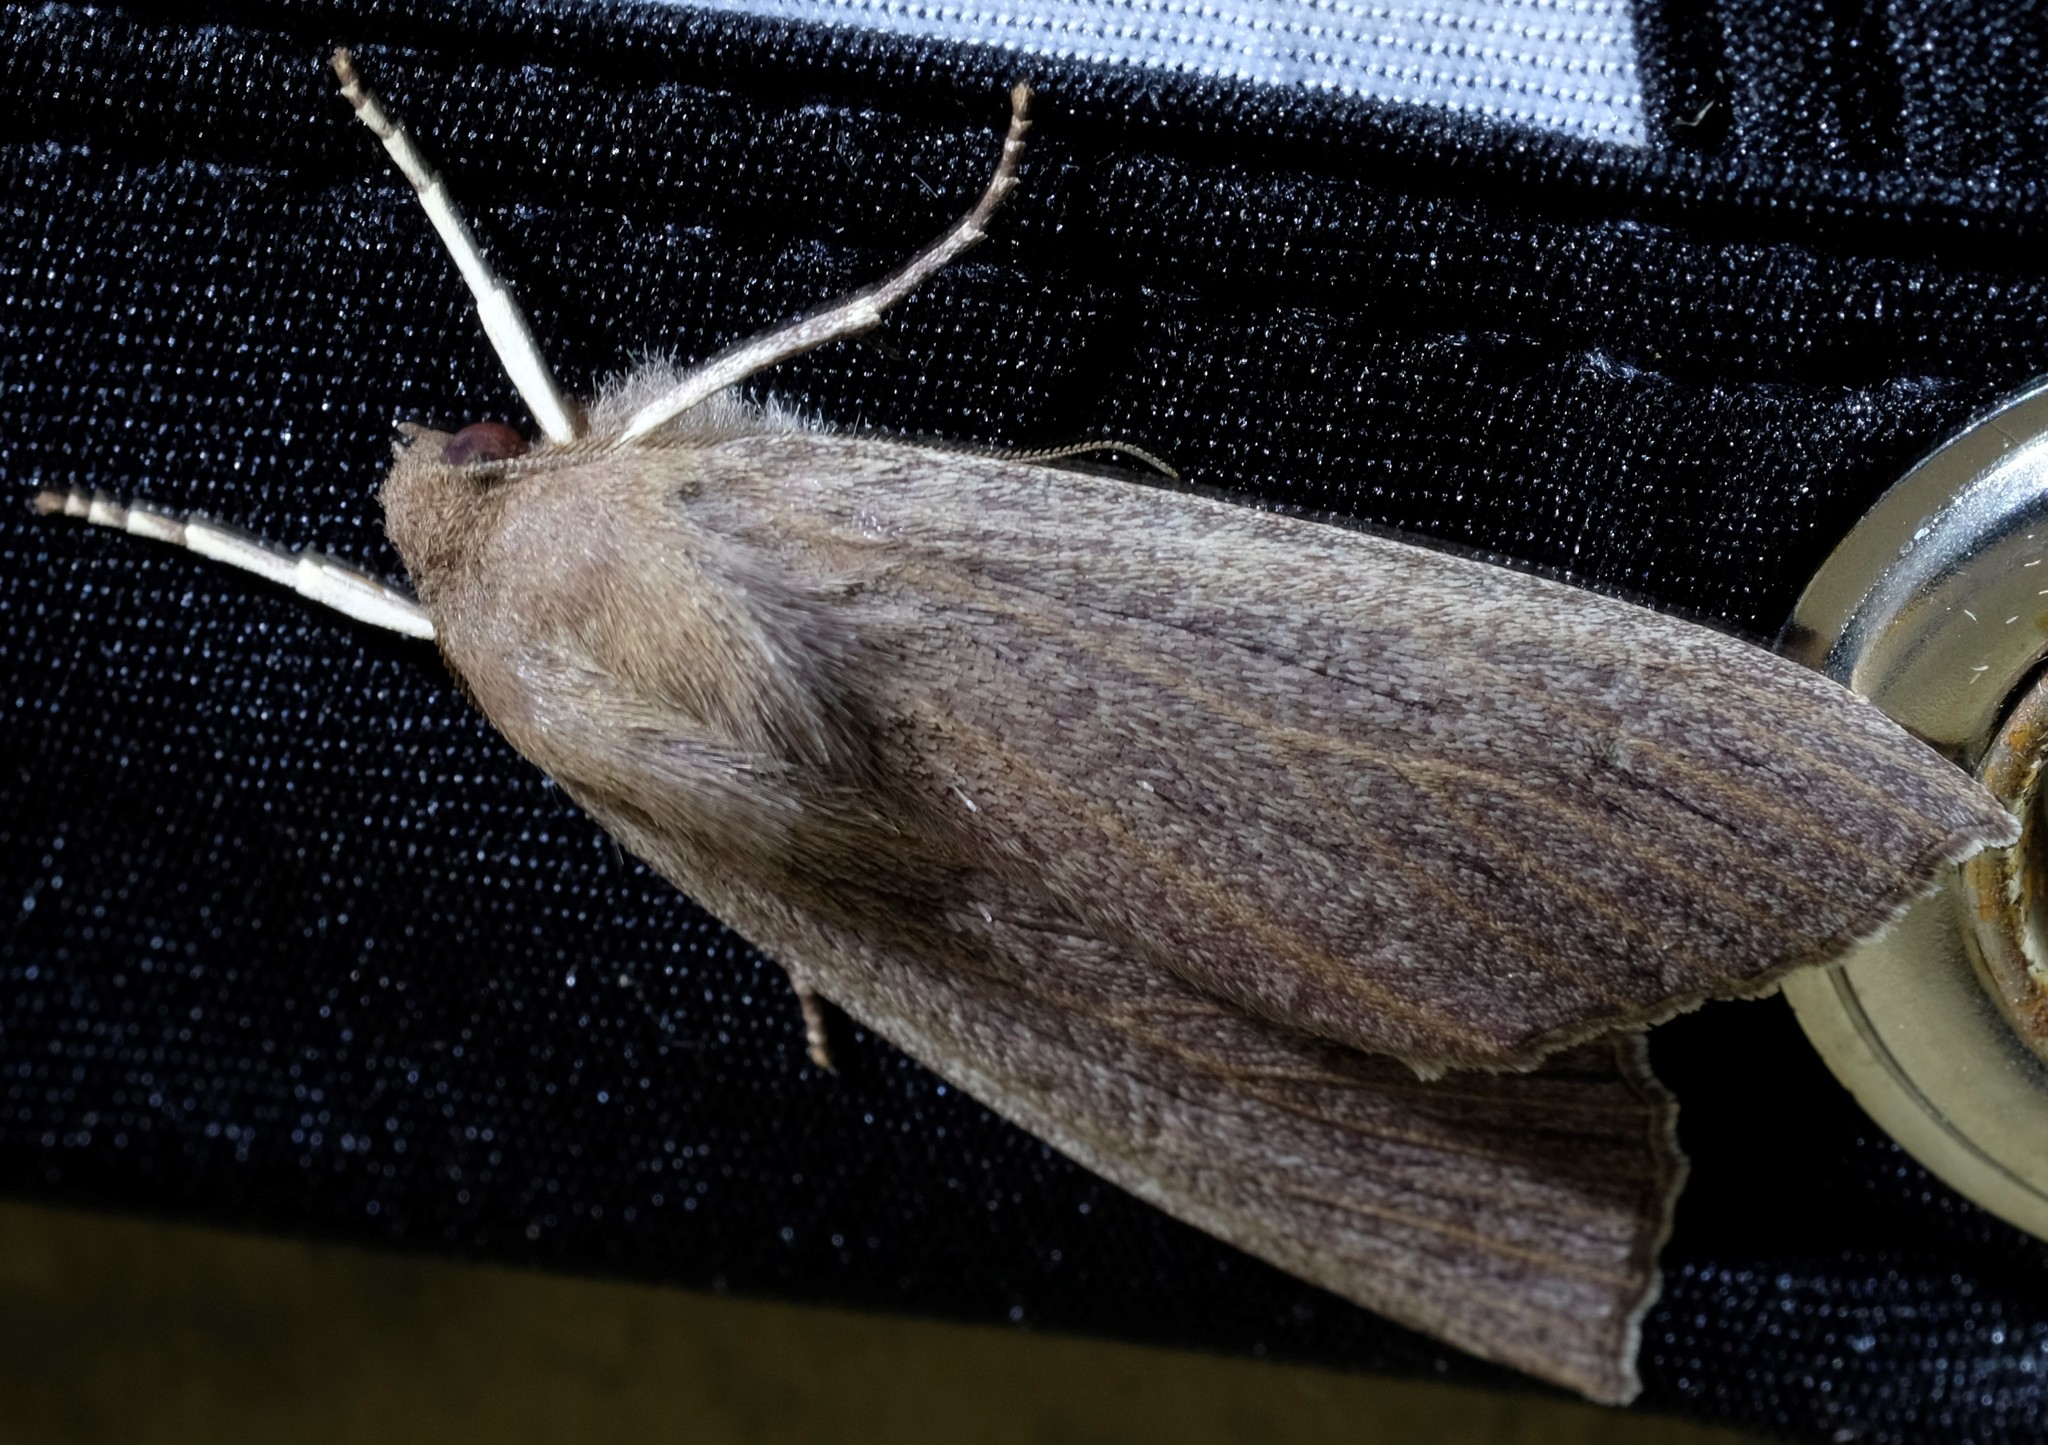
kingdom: Animalia
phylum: Arthropoda
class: Insecta
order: Lepidoptera
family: Geometridae
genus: Palleopa
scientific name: Palleopa innotata
